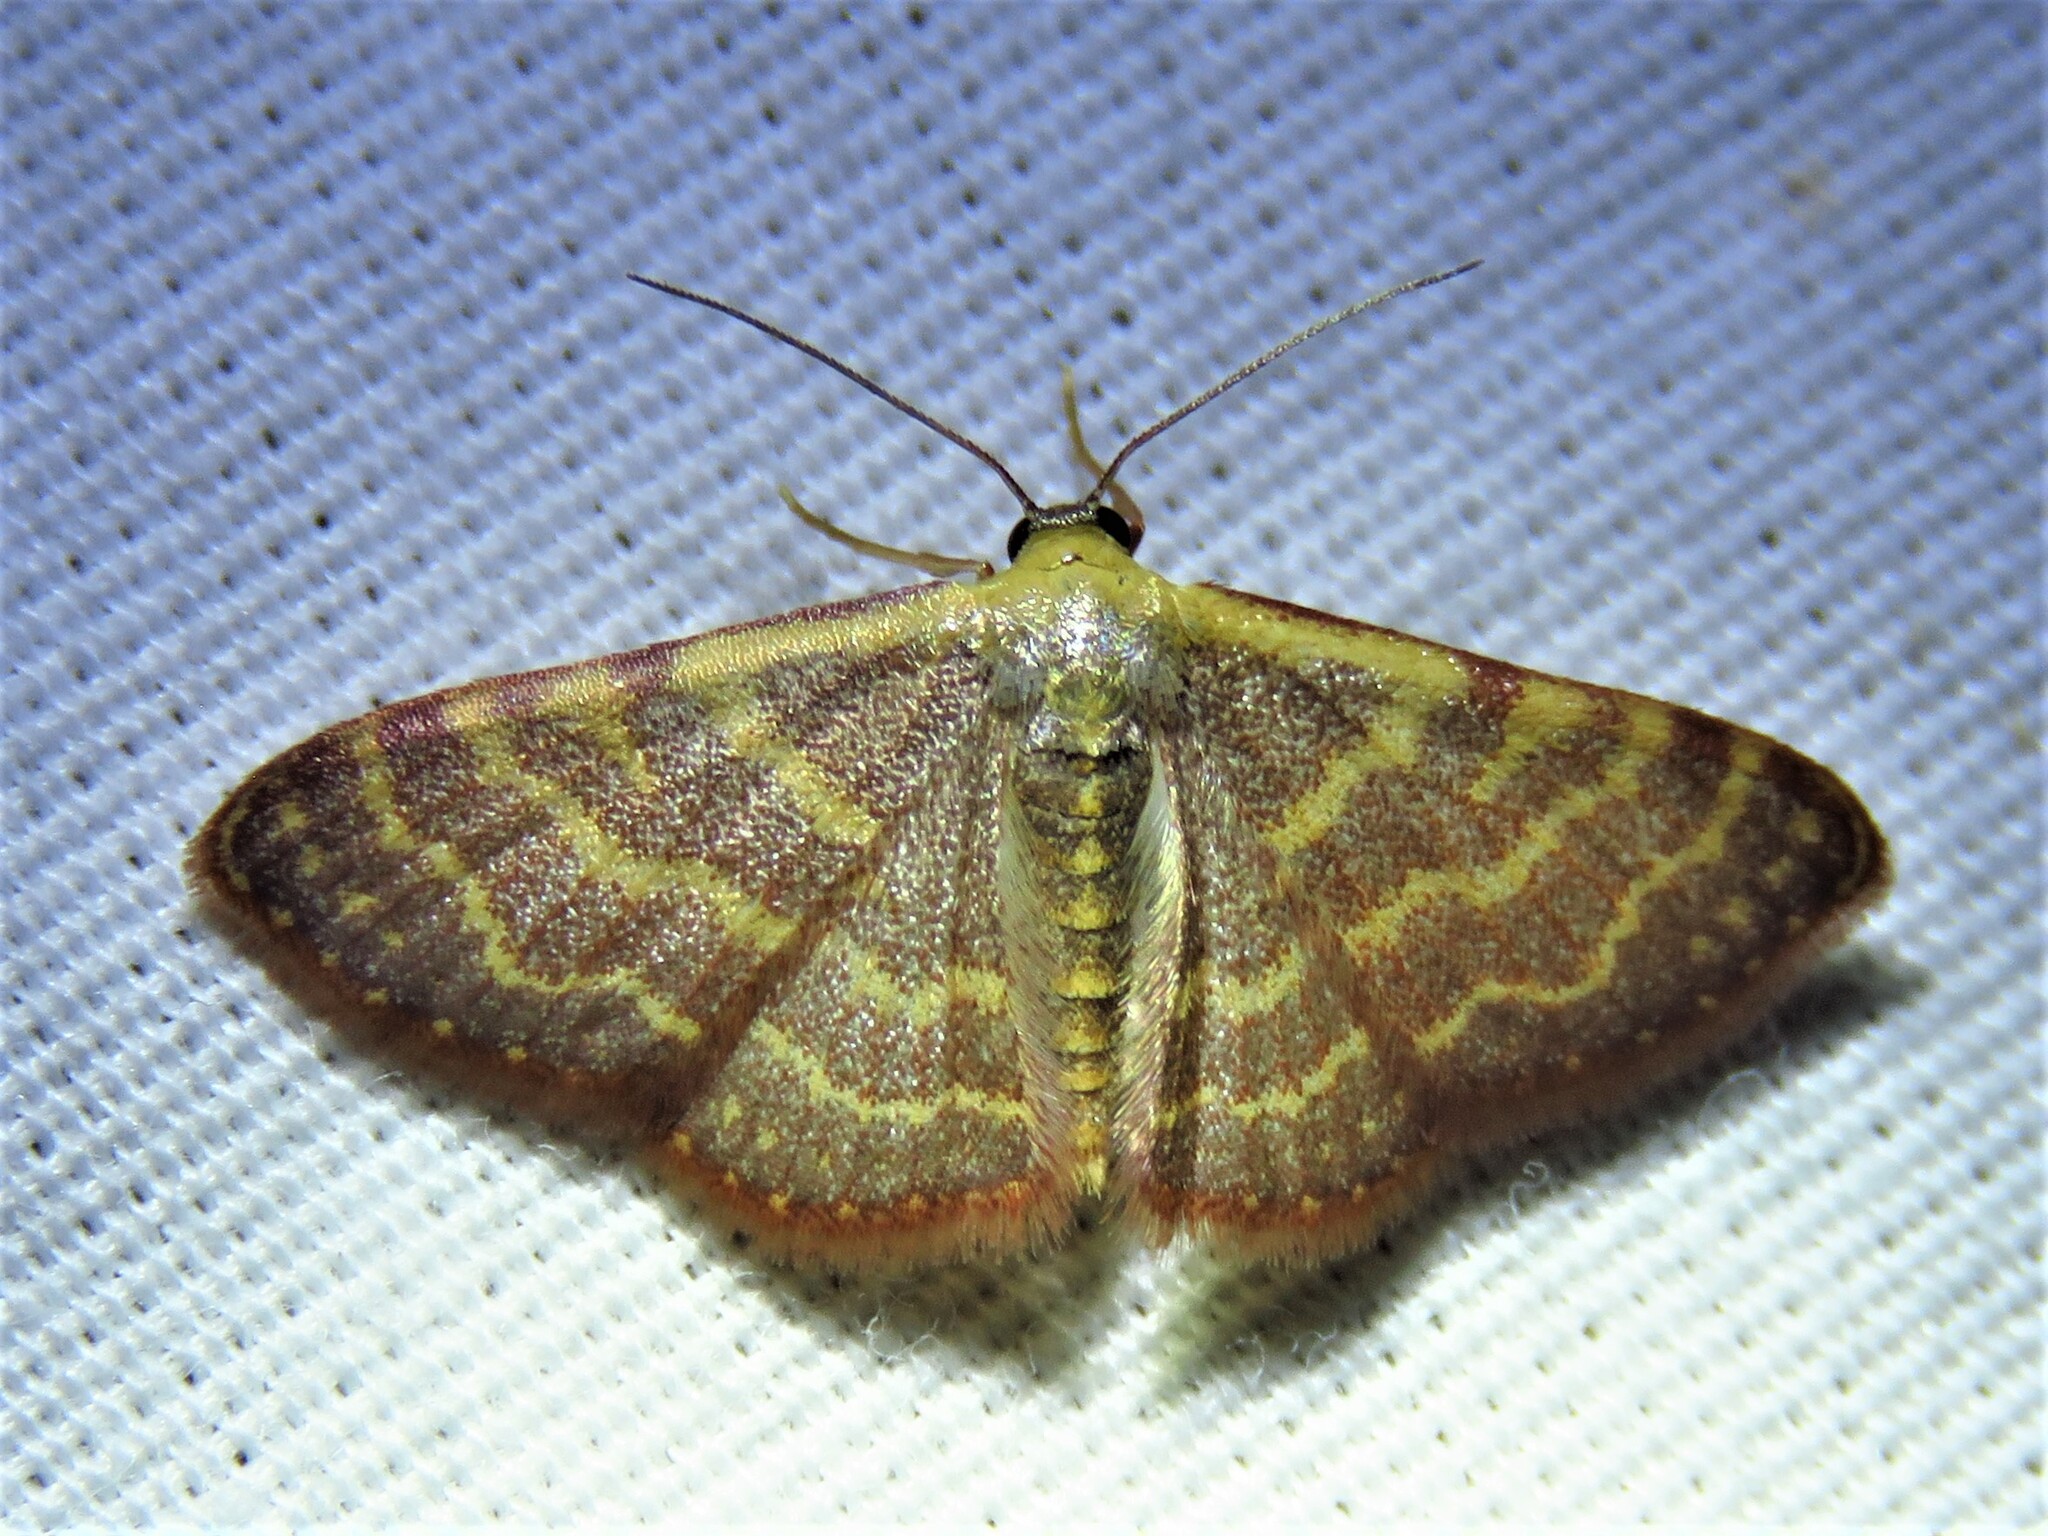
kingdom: Animalia
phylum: Arthropoda
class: Insecta
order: Lepidoptera
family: Geometridae
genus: Leptostales
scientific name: Leptostales pannaria
